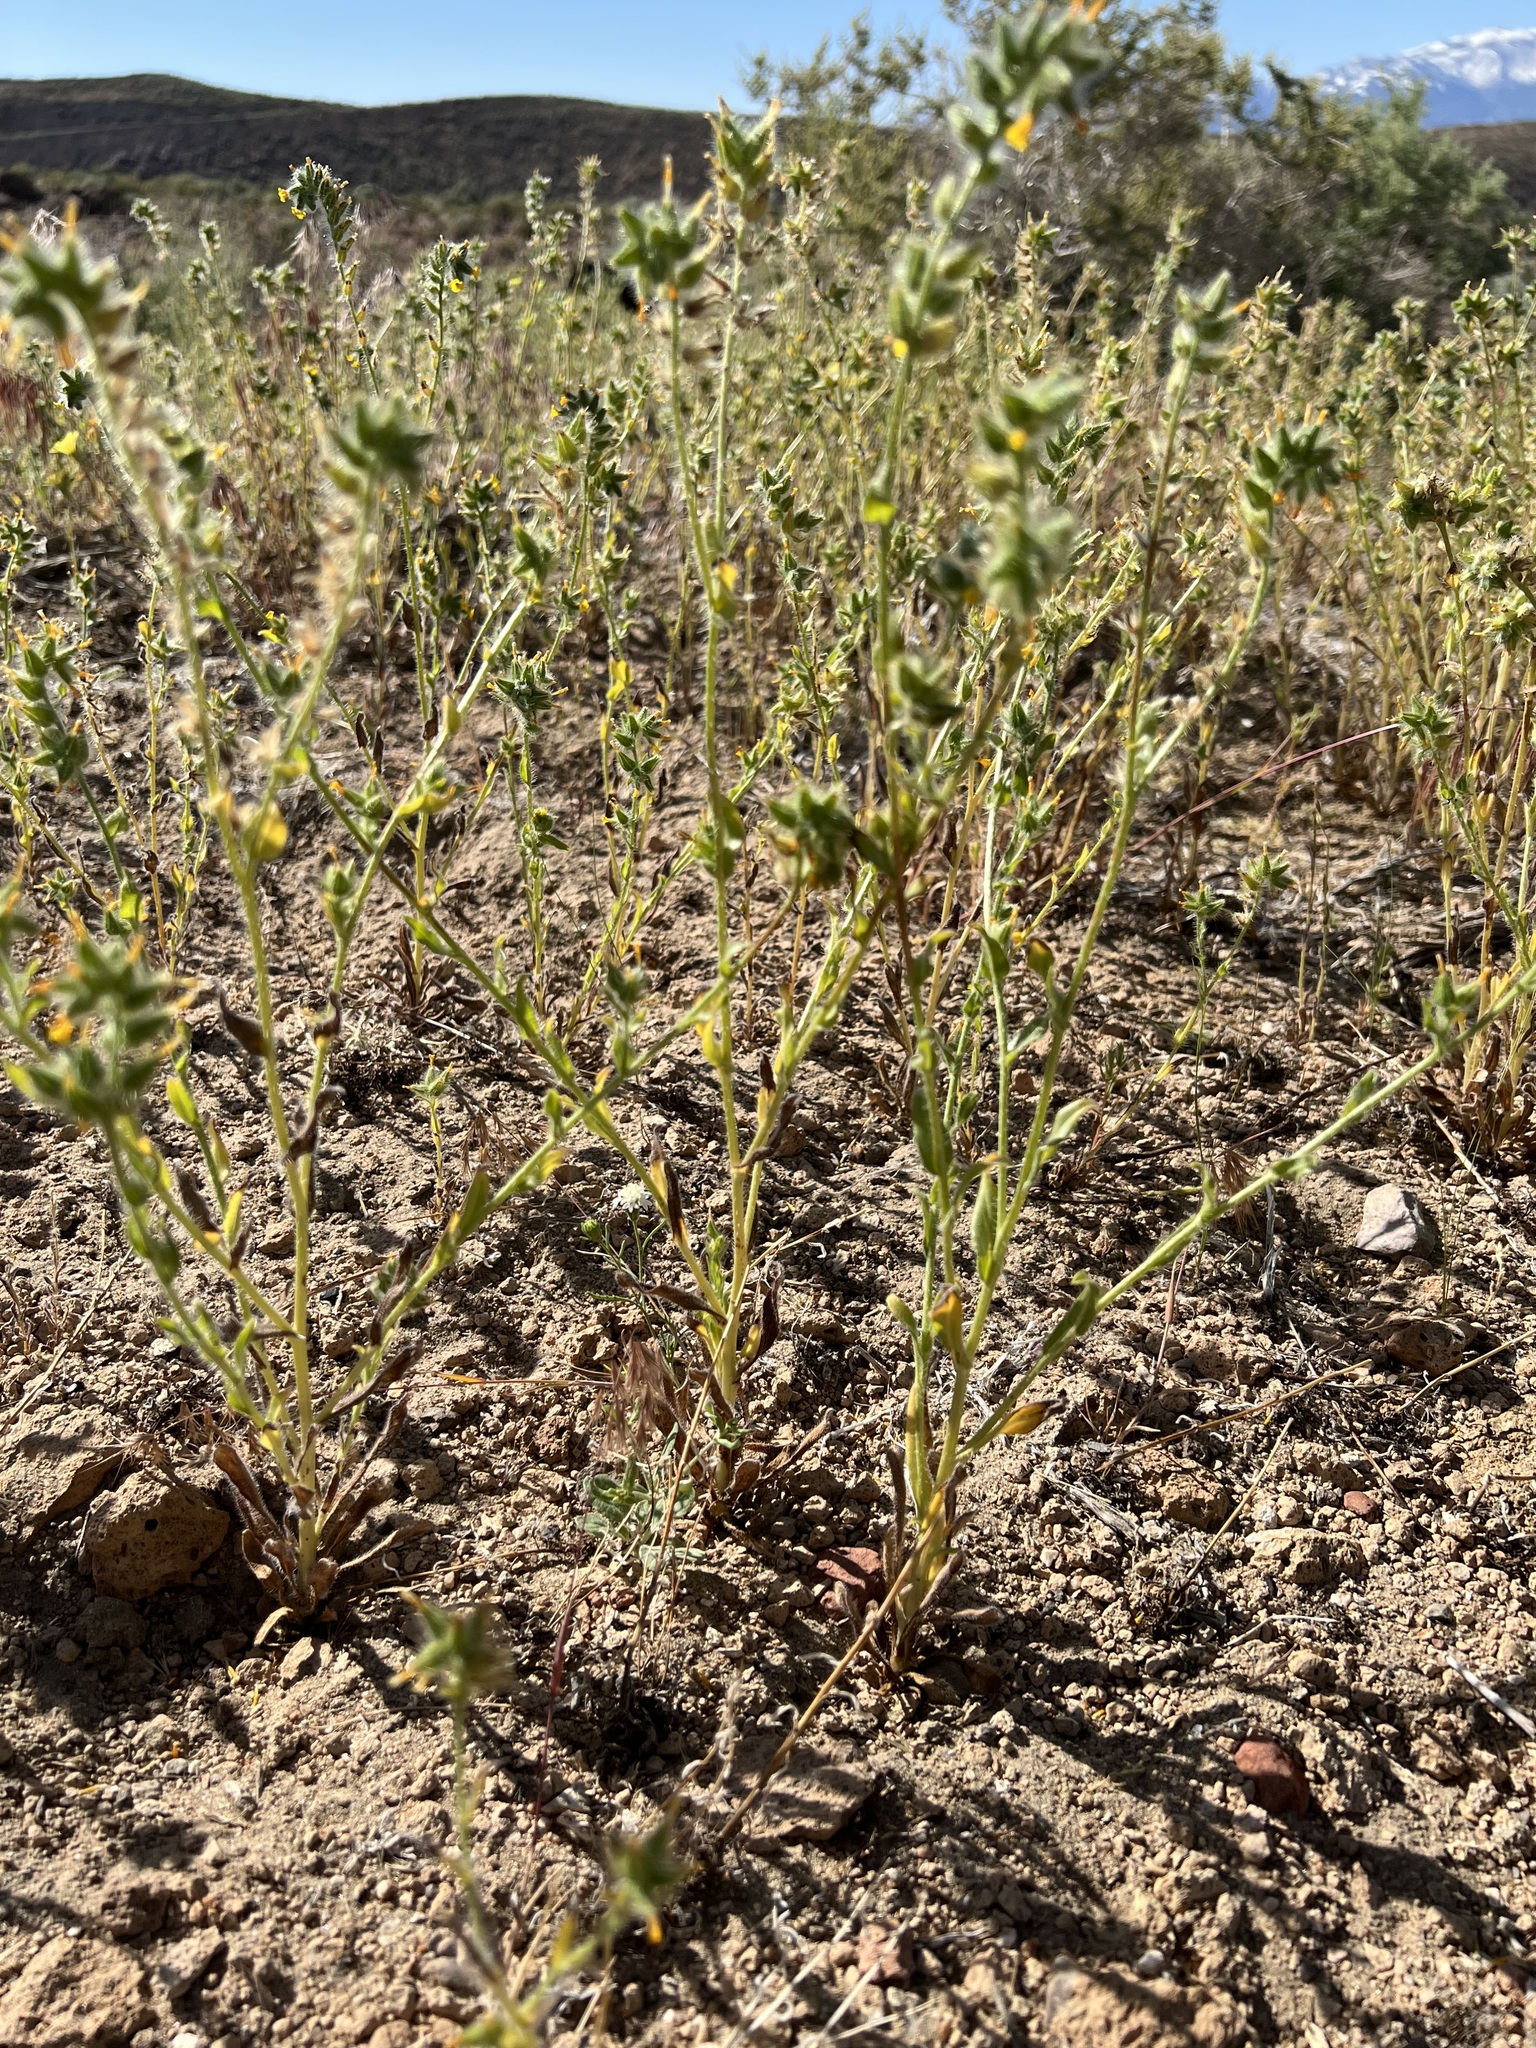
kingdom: Plantae
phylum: Tracheophyta
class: Magnoliopsida
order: Boraginales
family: Boraginaceae
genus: Amsinckia
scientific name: Amsinckia tessellata
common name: Tessellate fiddleneck
